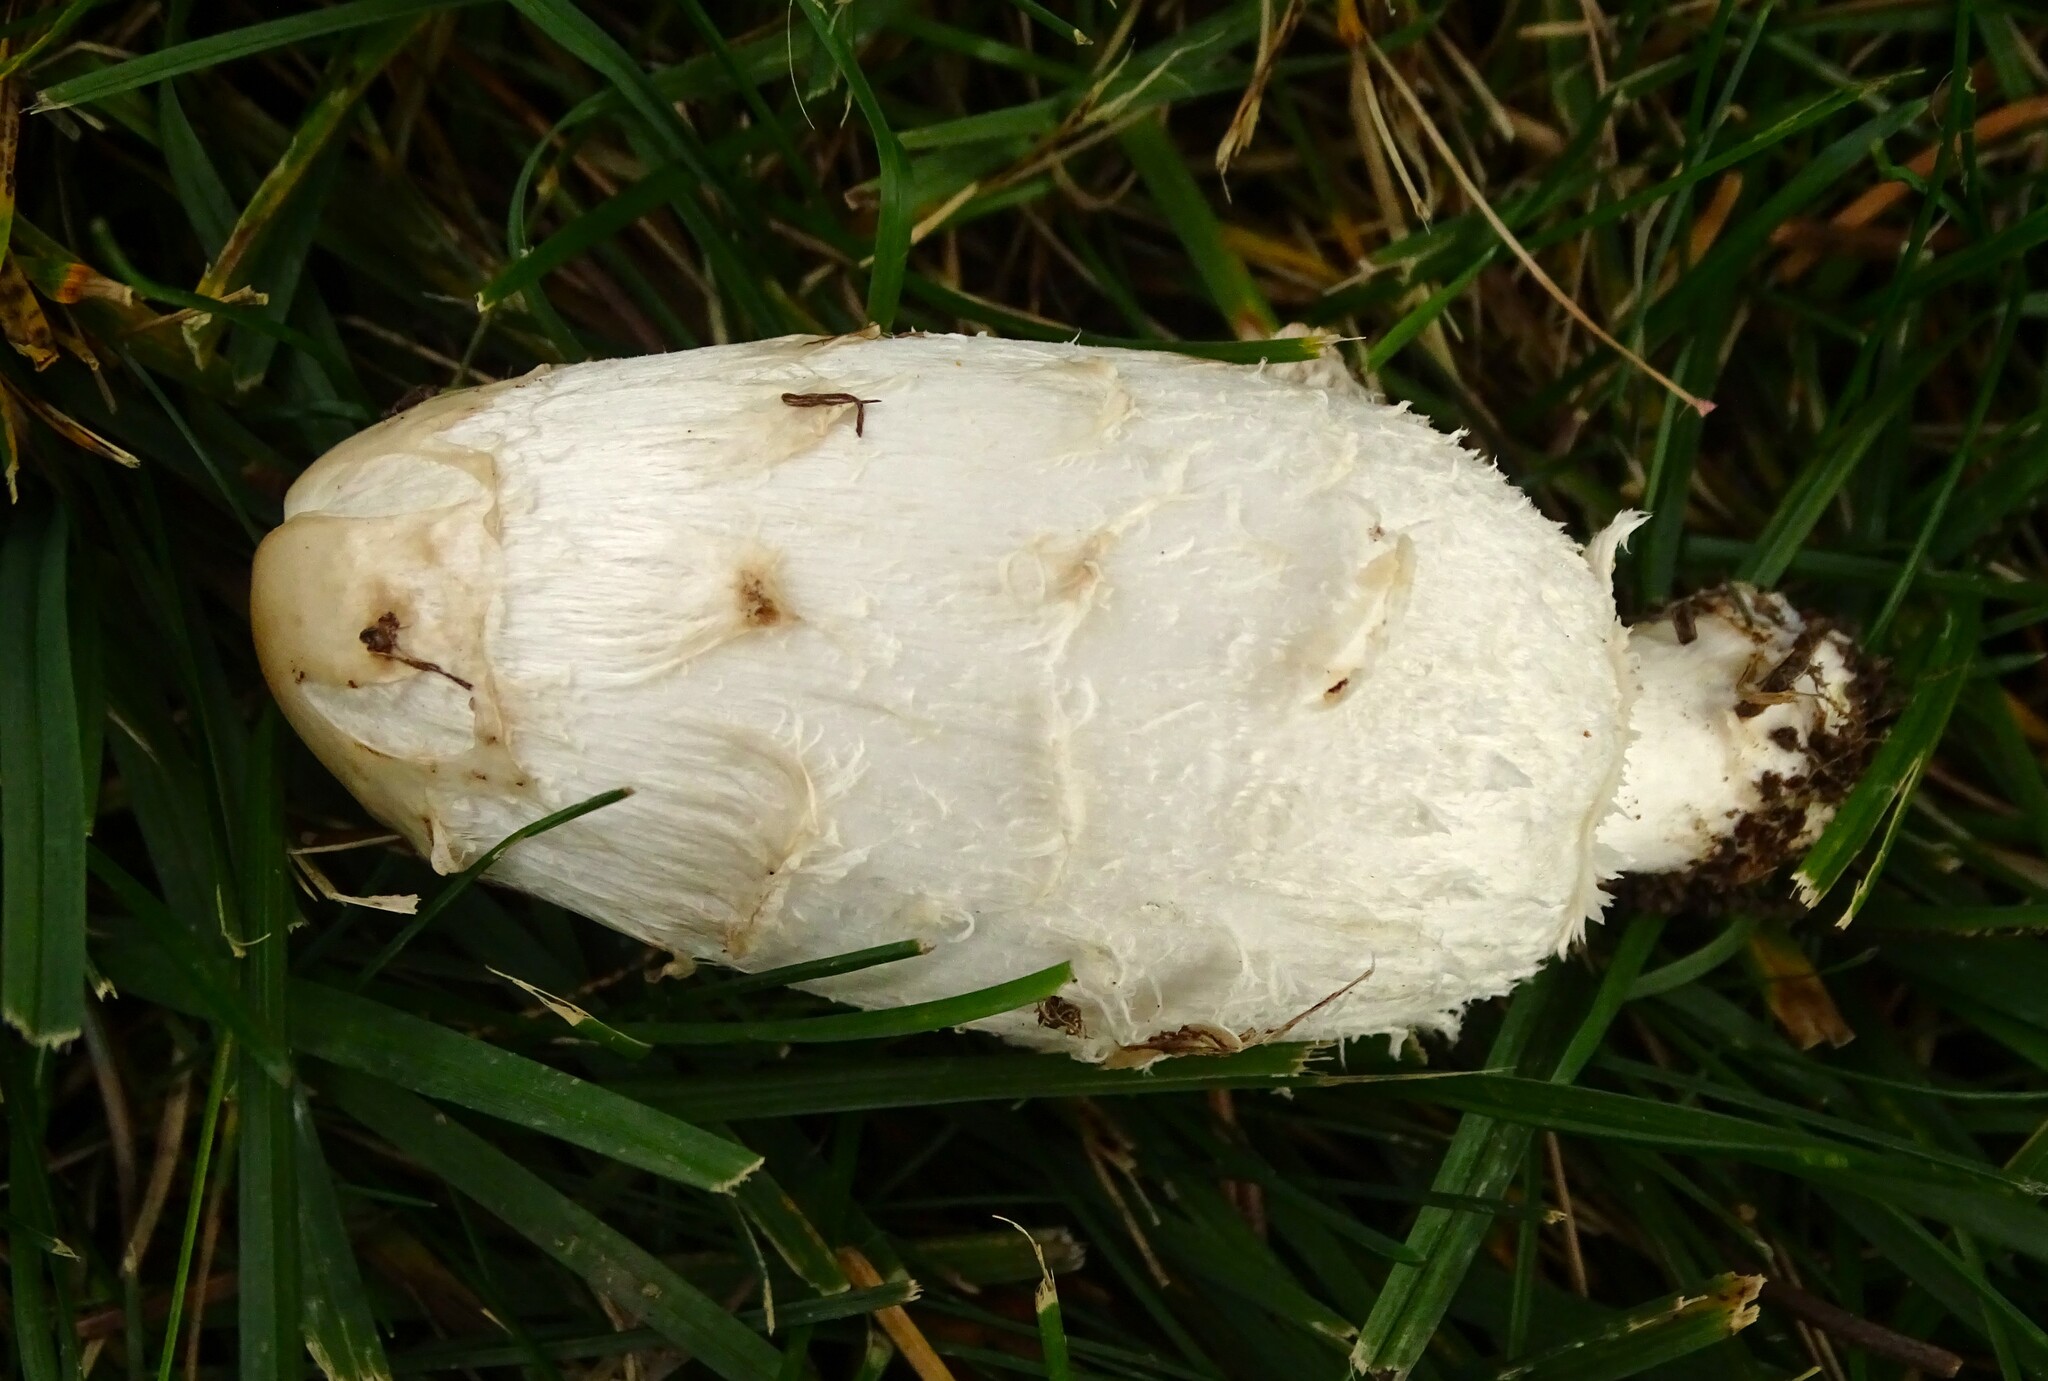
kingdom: Fungi
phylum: Basidiomycota
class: Agaricomycetes
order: Agaricales
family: Agaricaceae
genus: Coprinus
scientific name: Coprinus comatus
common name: Lawyer's wig
